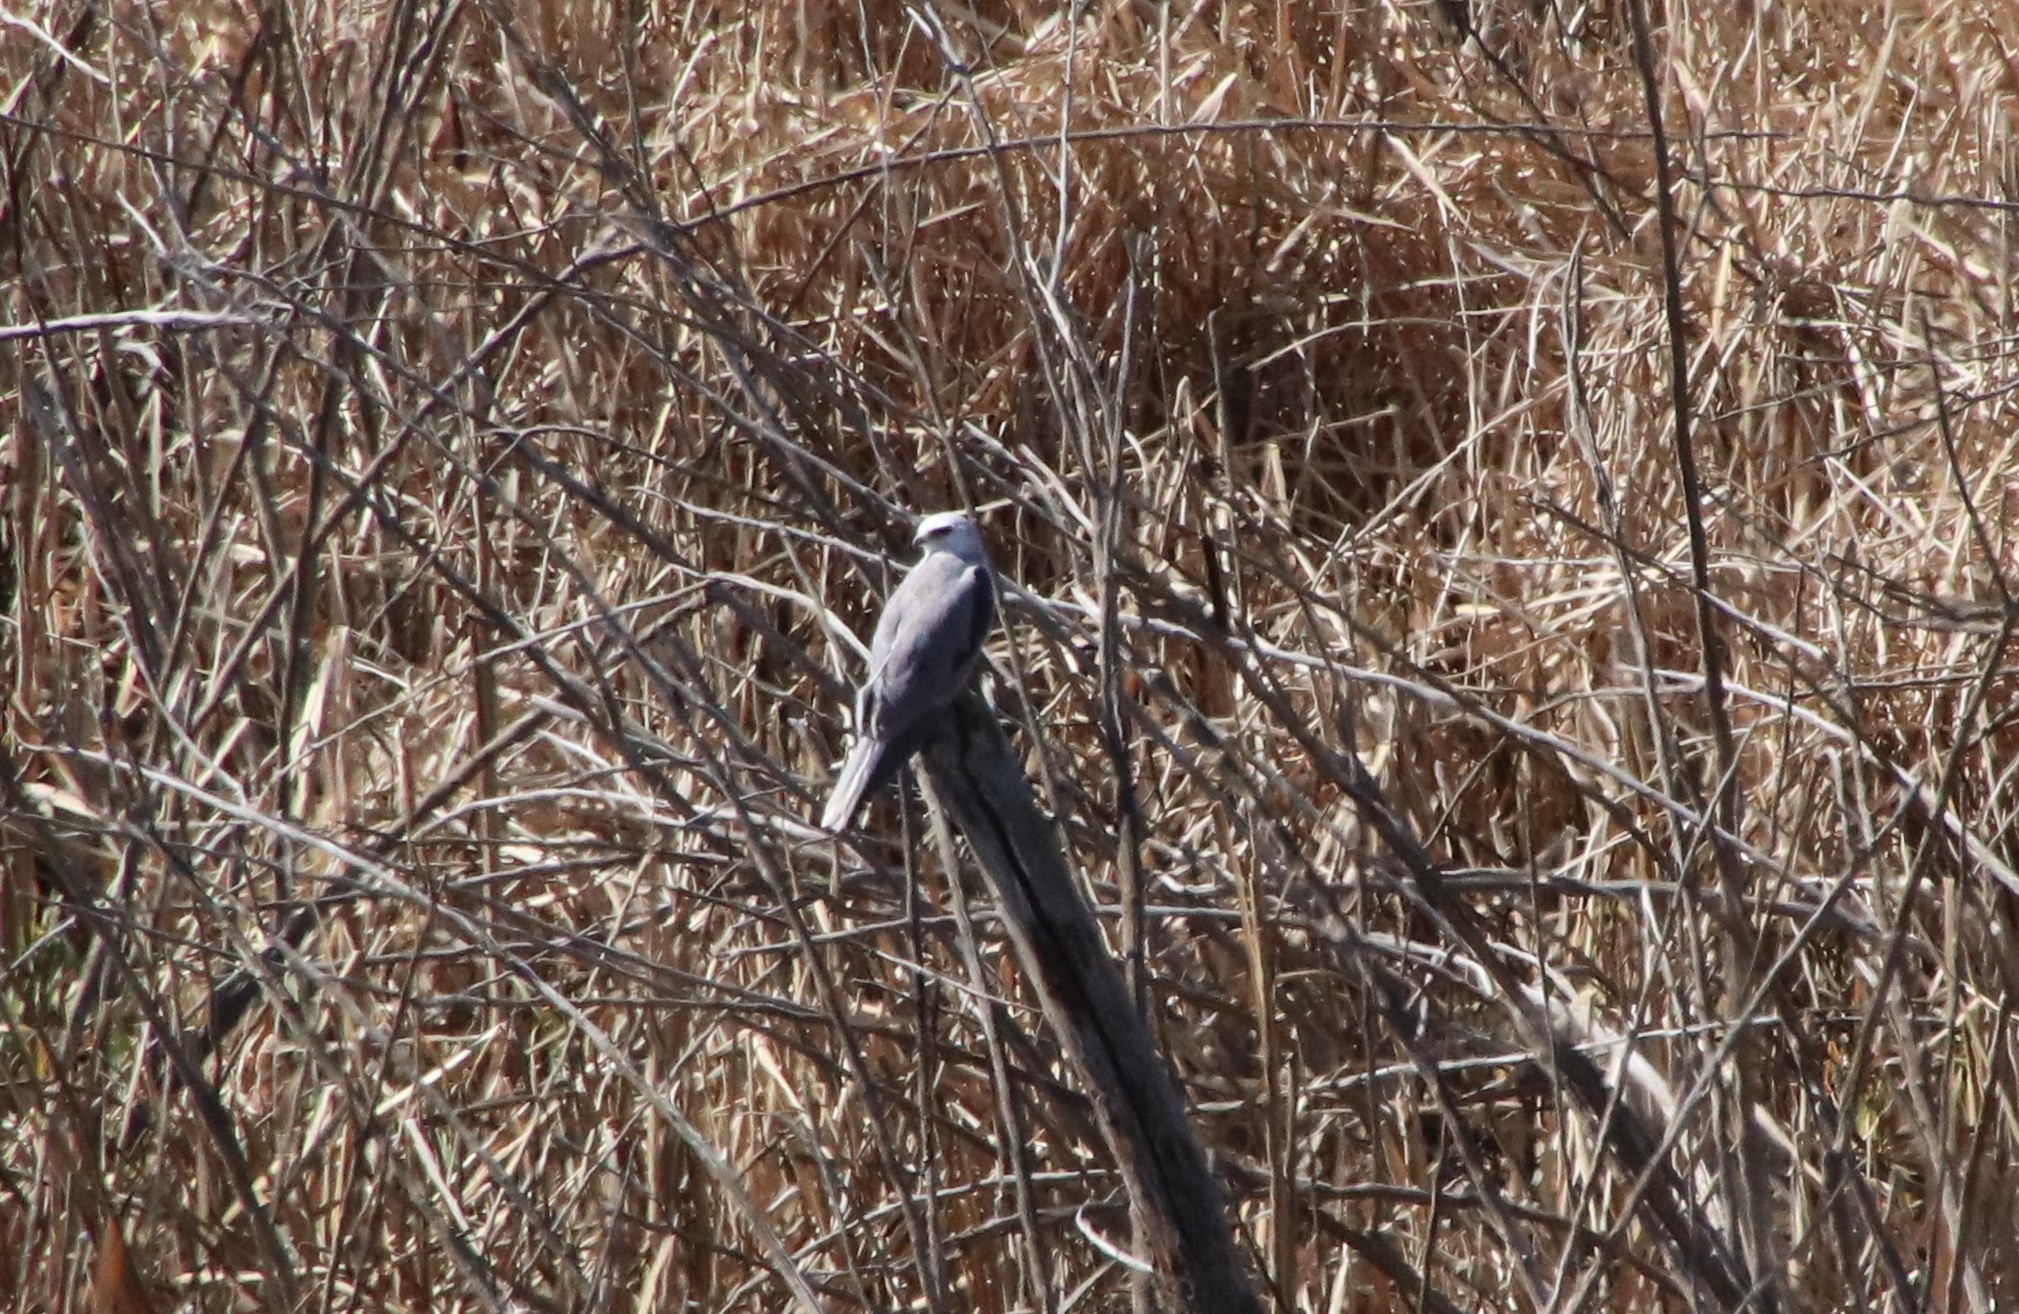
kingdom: Animalia
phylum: Chordata
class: Aves
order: Accipitriformes
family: Accipitridae
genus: Elanus
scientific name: Elanus leucurus
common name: White-tailed kite
